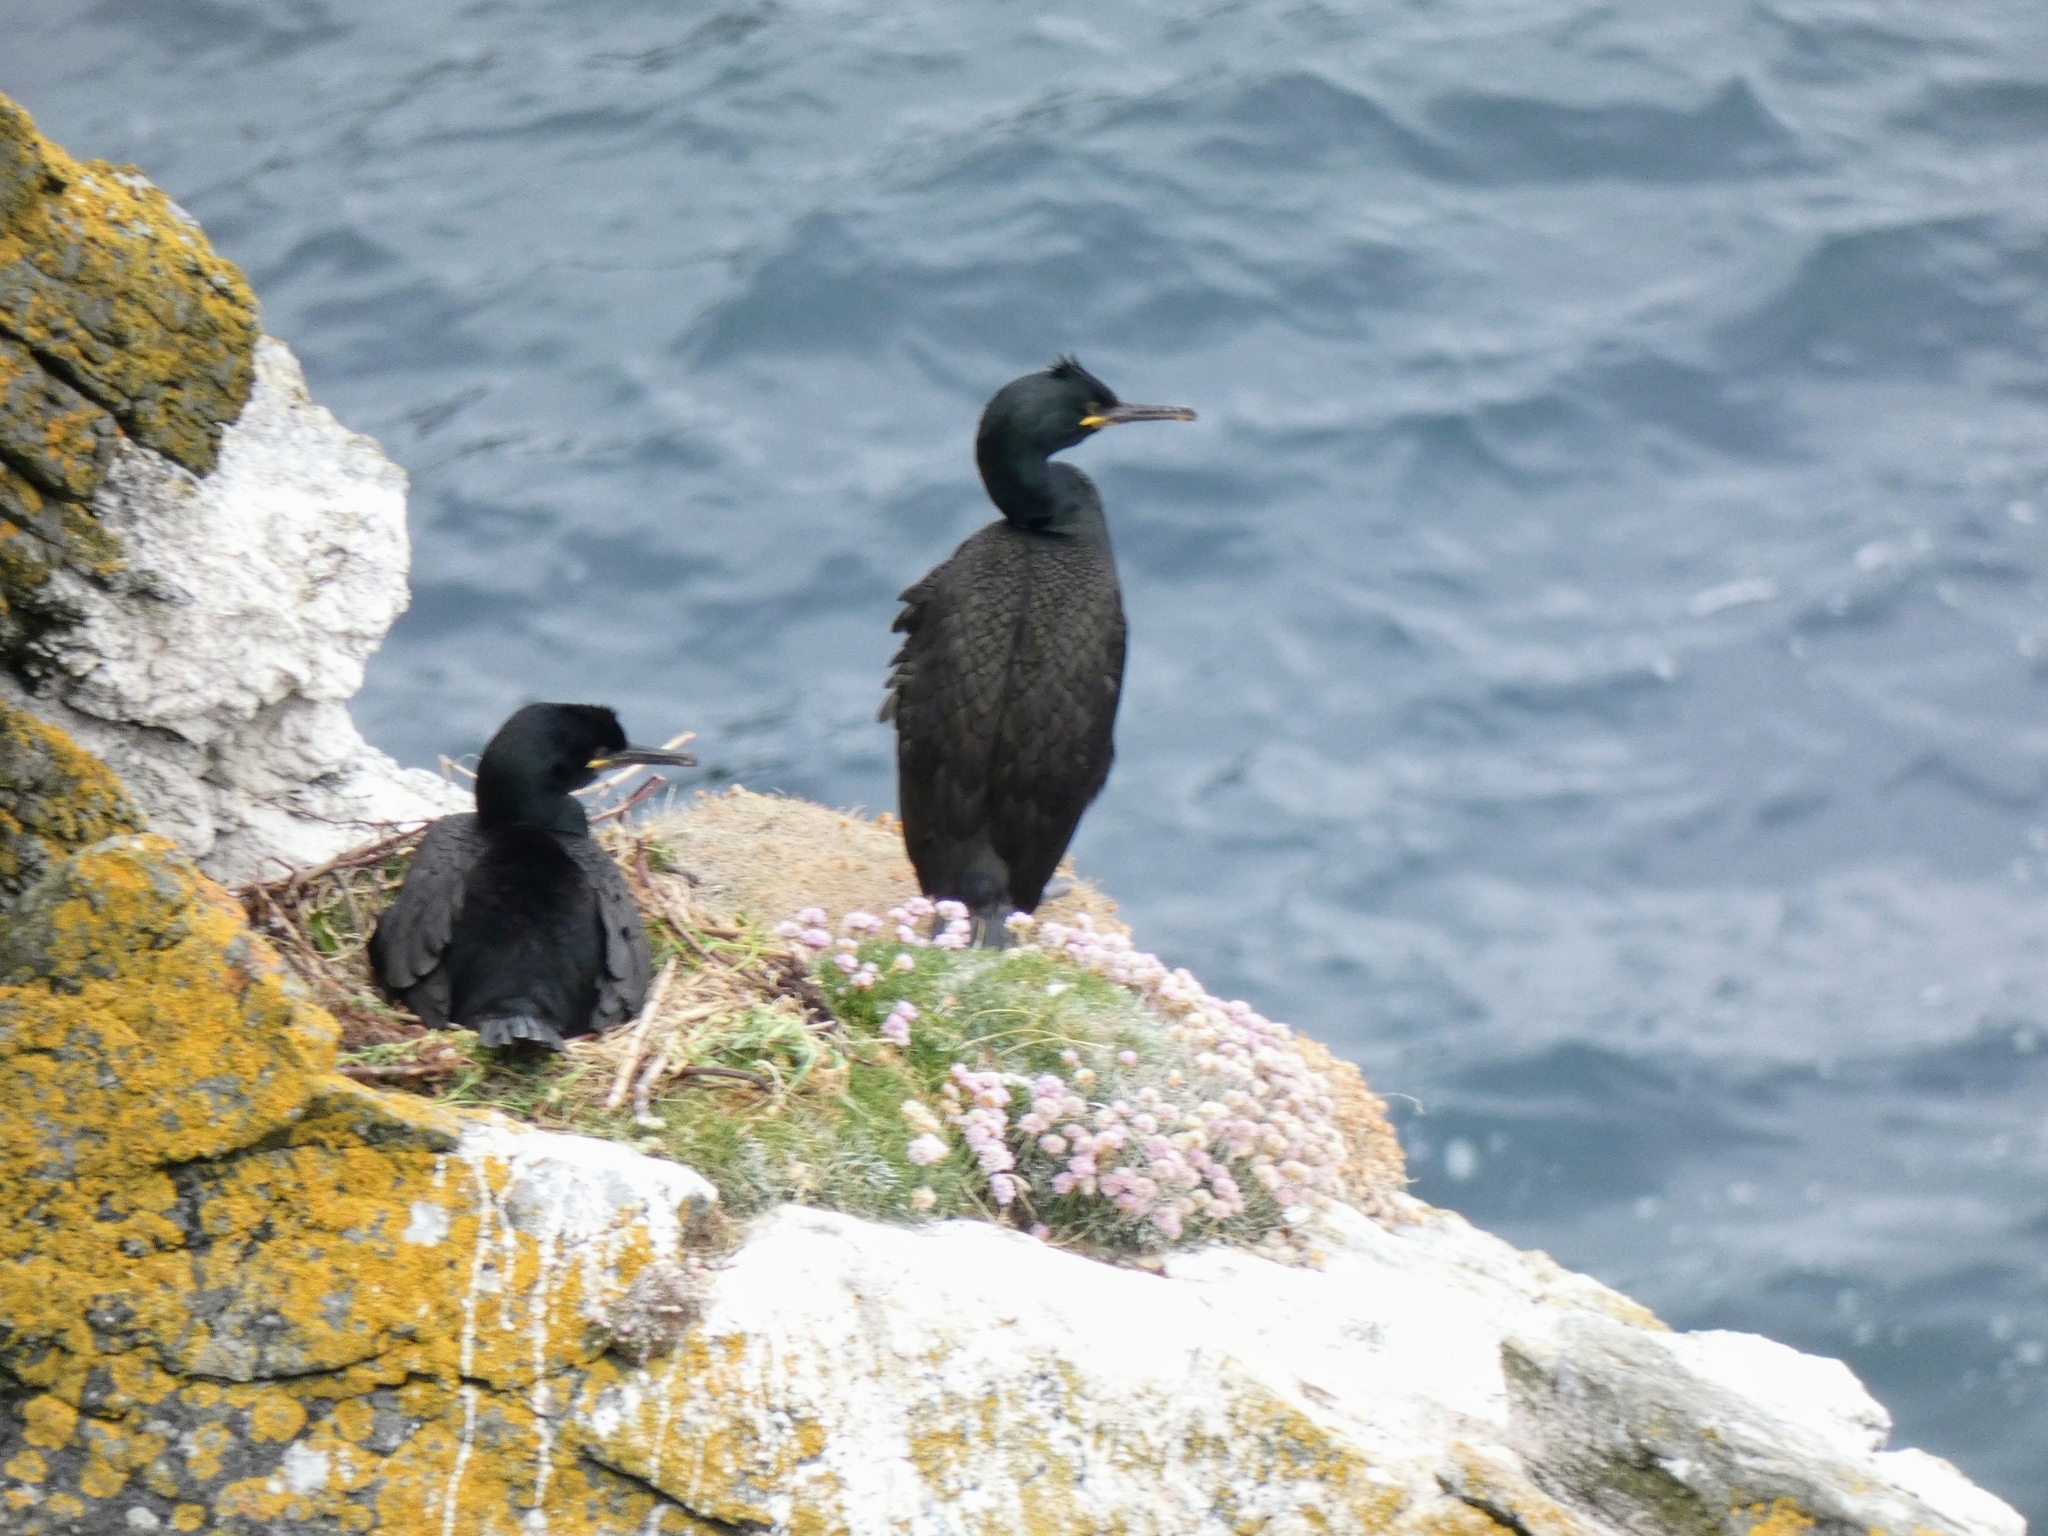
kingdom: Animalia
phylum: Chordata
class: Aves
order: Suliformes
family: Phalacrocoracidae
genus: Phalacrocorax
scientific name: Phalacrocorax aristotelis
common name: European shag
